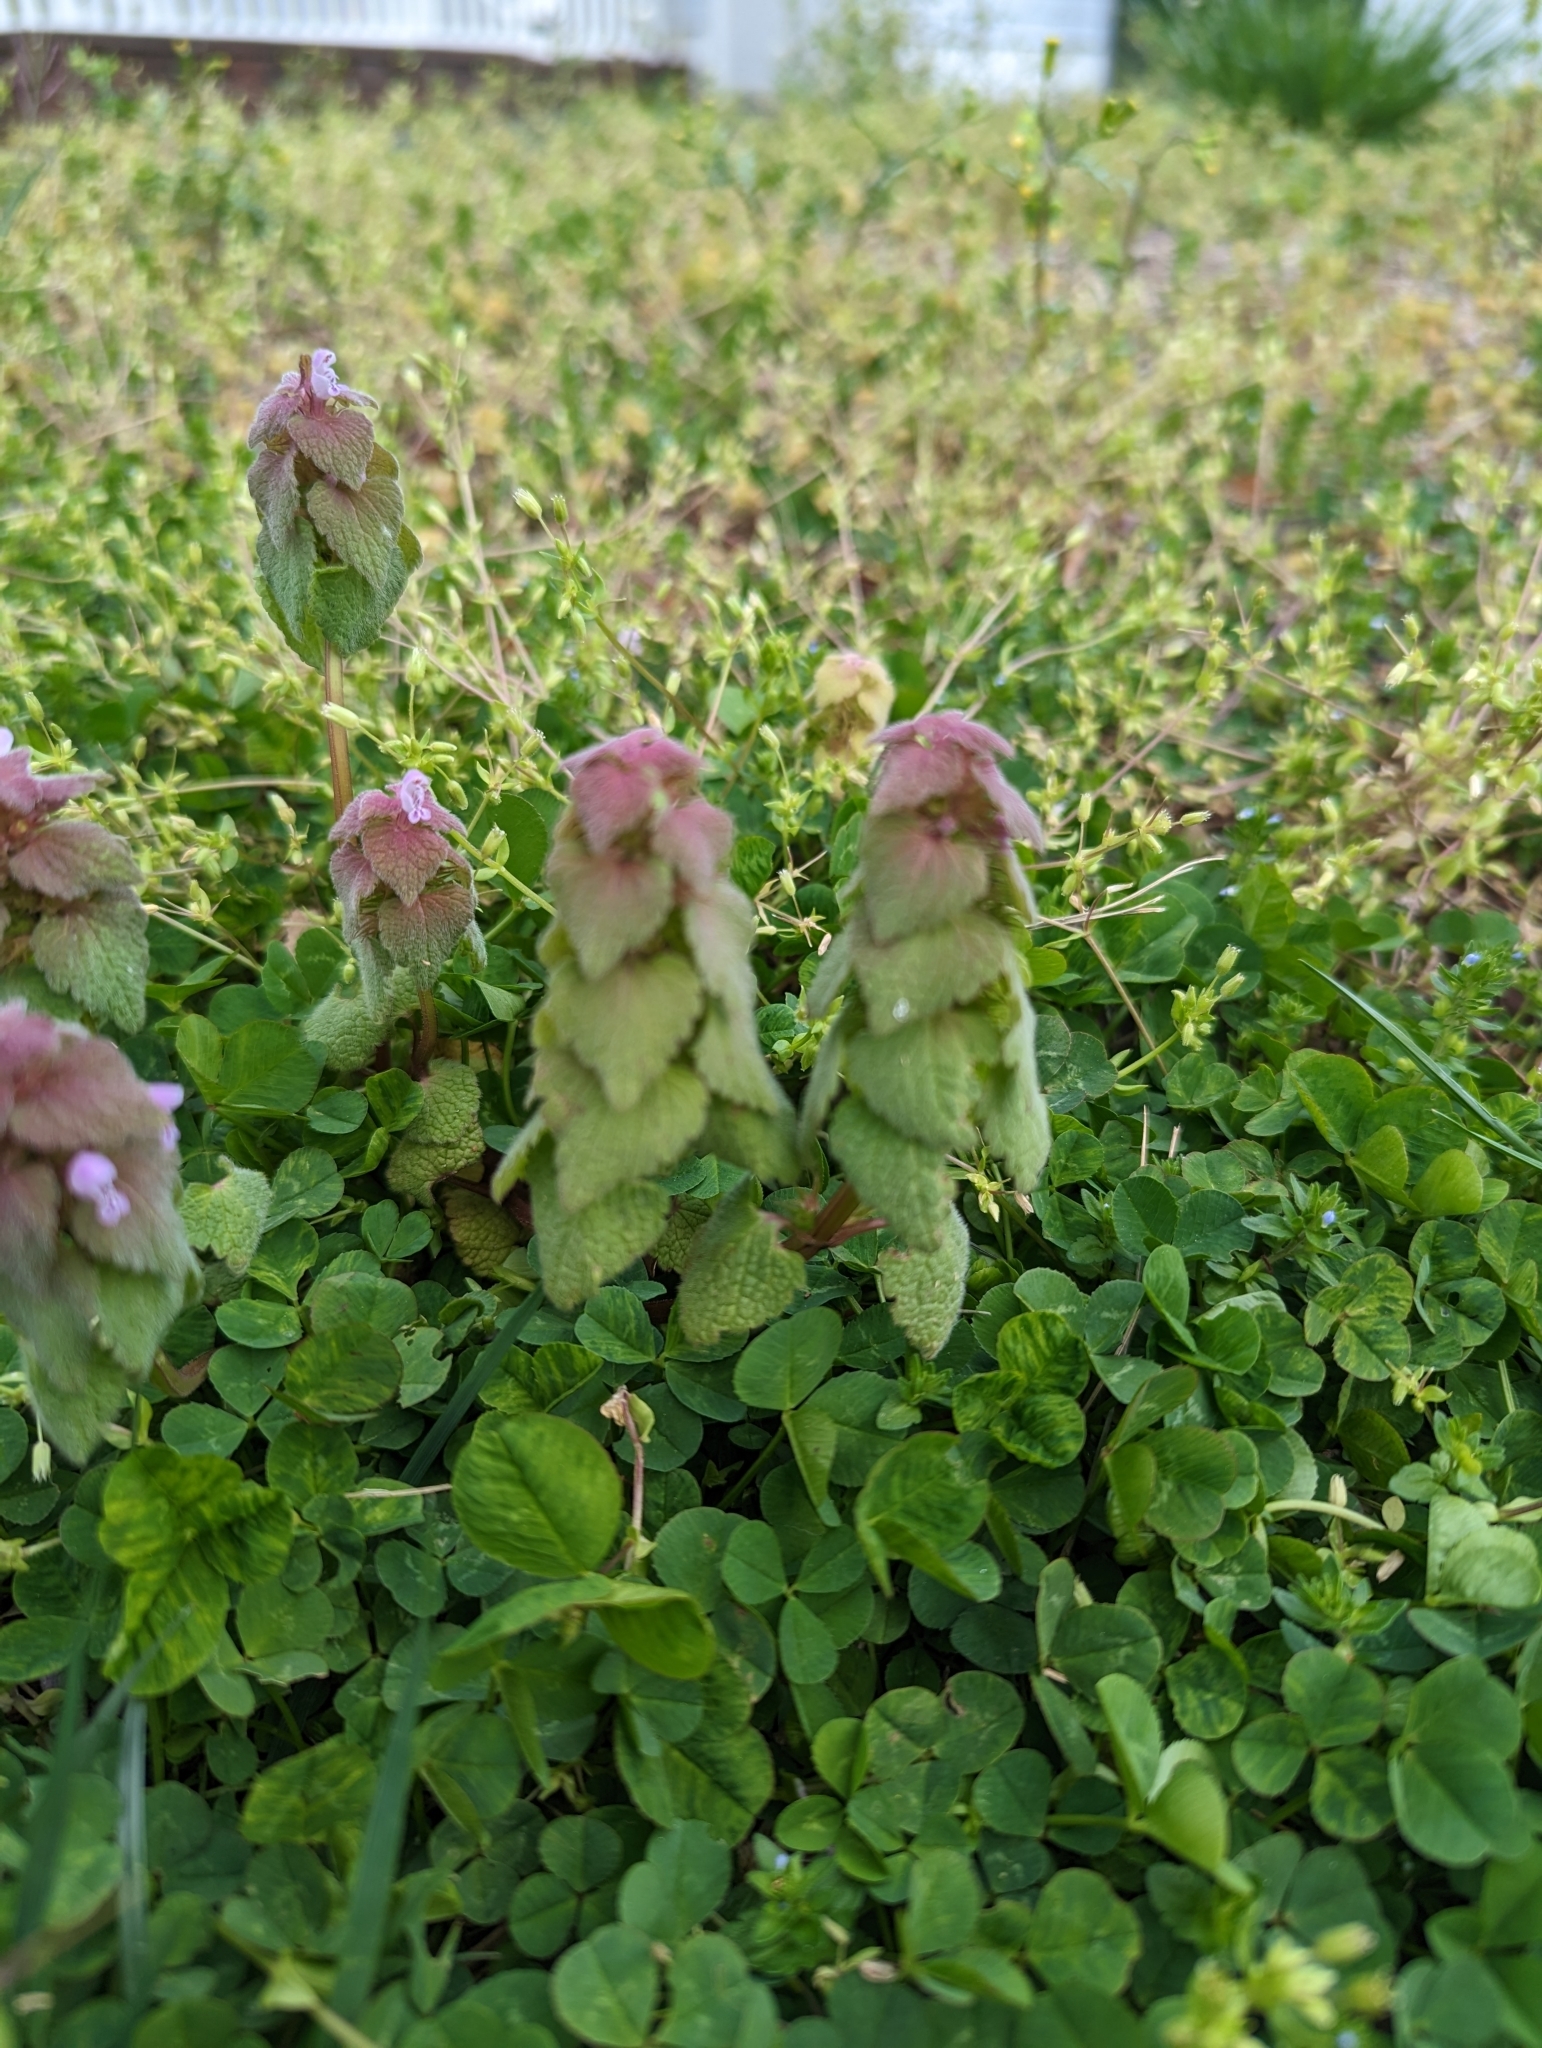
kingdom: Plantae
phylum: Tracheophyta
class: Magnoliopsida
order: Lamiales
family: Lamiaceae
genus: Lamium
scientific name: Lamium purpureum
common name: Red dead-nettle
